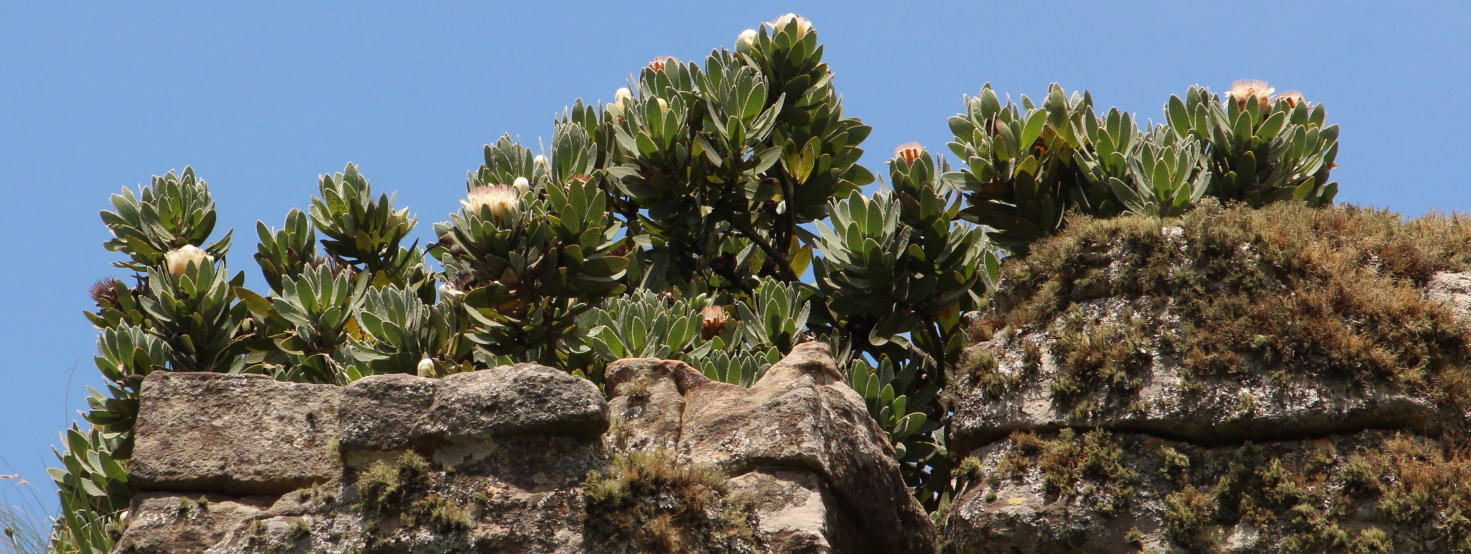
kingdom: Plantae
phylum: Tracheophyta
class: Magnoliopsida
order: Proteales
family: Proteaceae
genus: Protea
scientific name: Protea subvestita
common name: Lip-flower sugarbush
